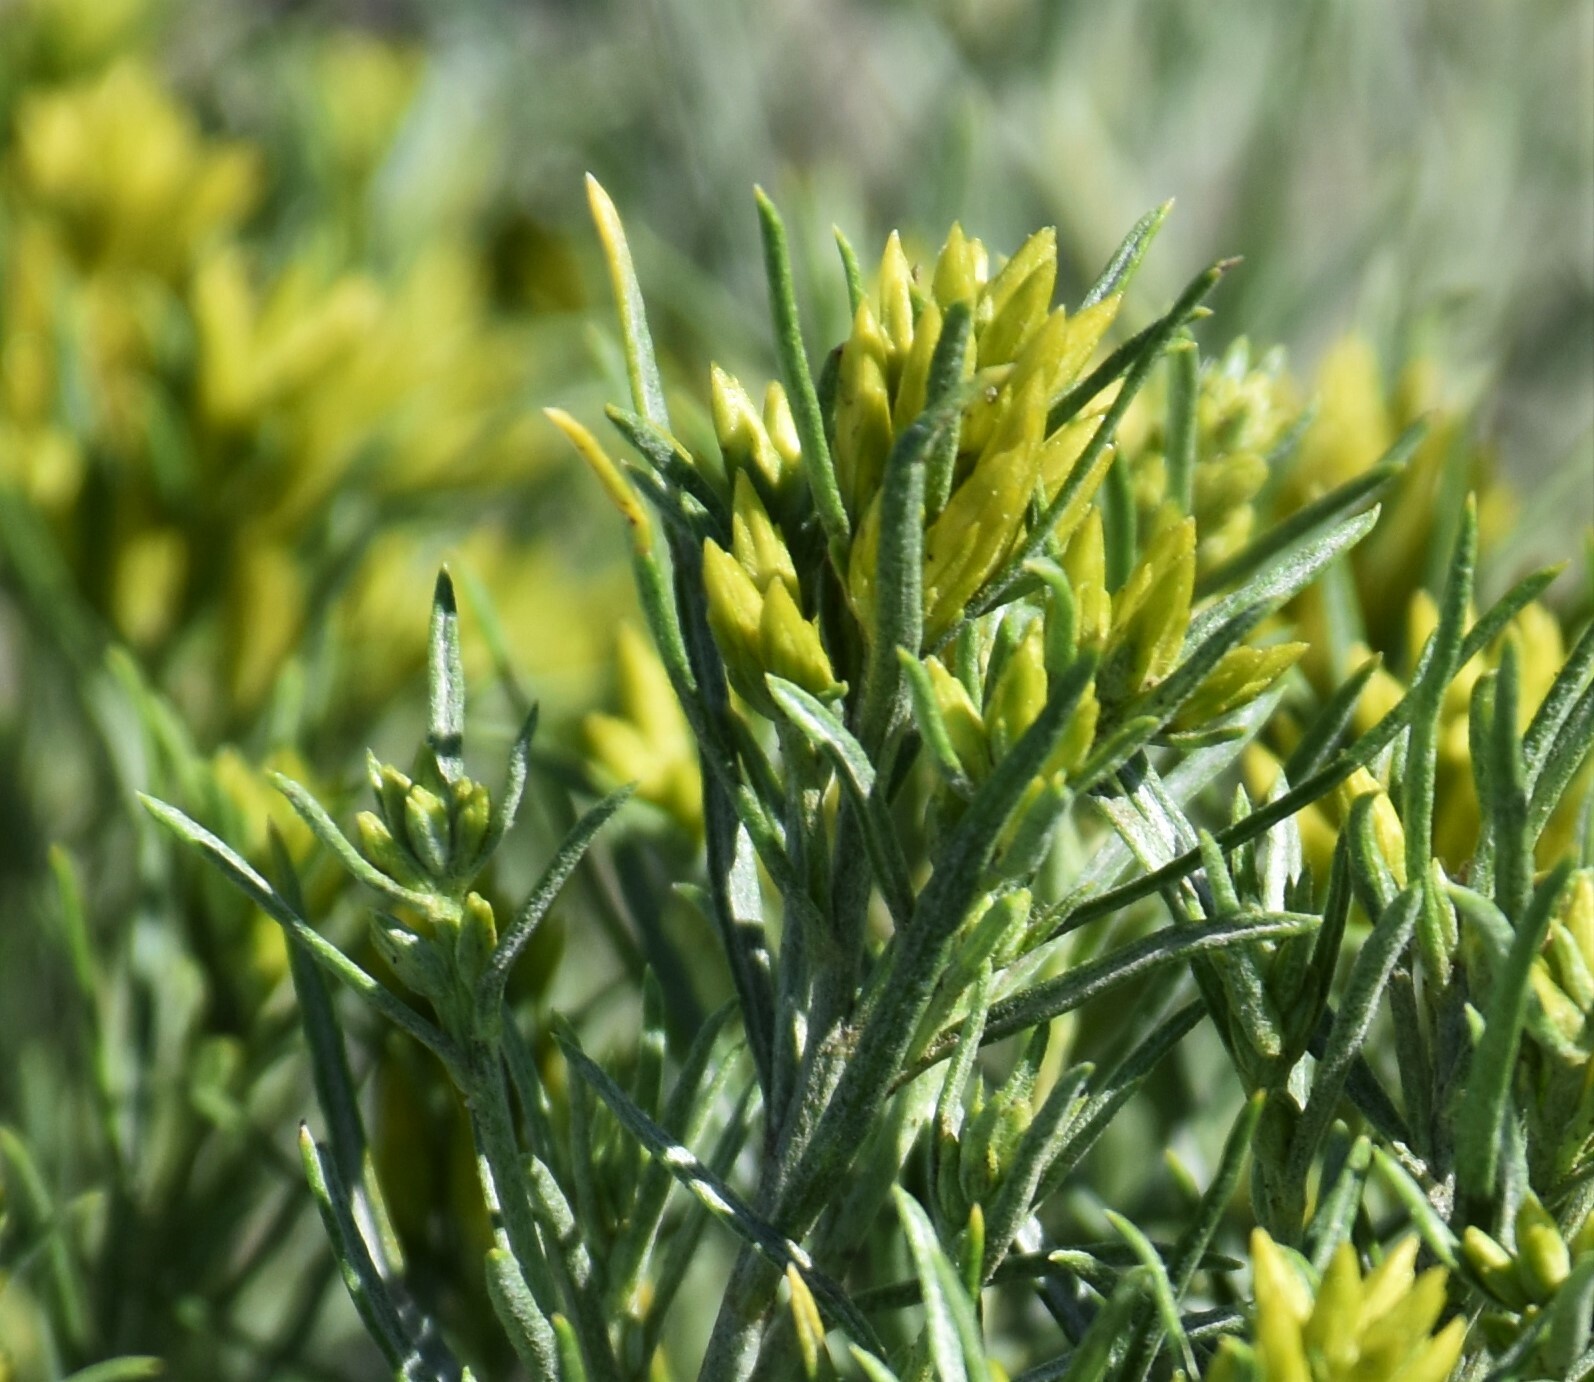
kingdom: Plantae
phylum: Tracheophyta
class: Magnoliopsida
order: Asterales
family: Asteraceae
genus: Ericameria
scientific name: Ericameria nauseosa
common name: Rubber rabbitbrush
